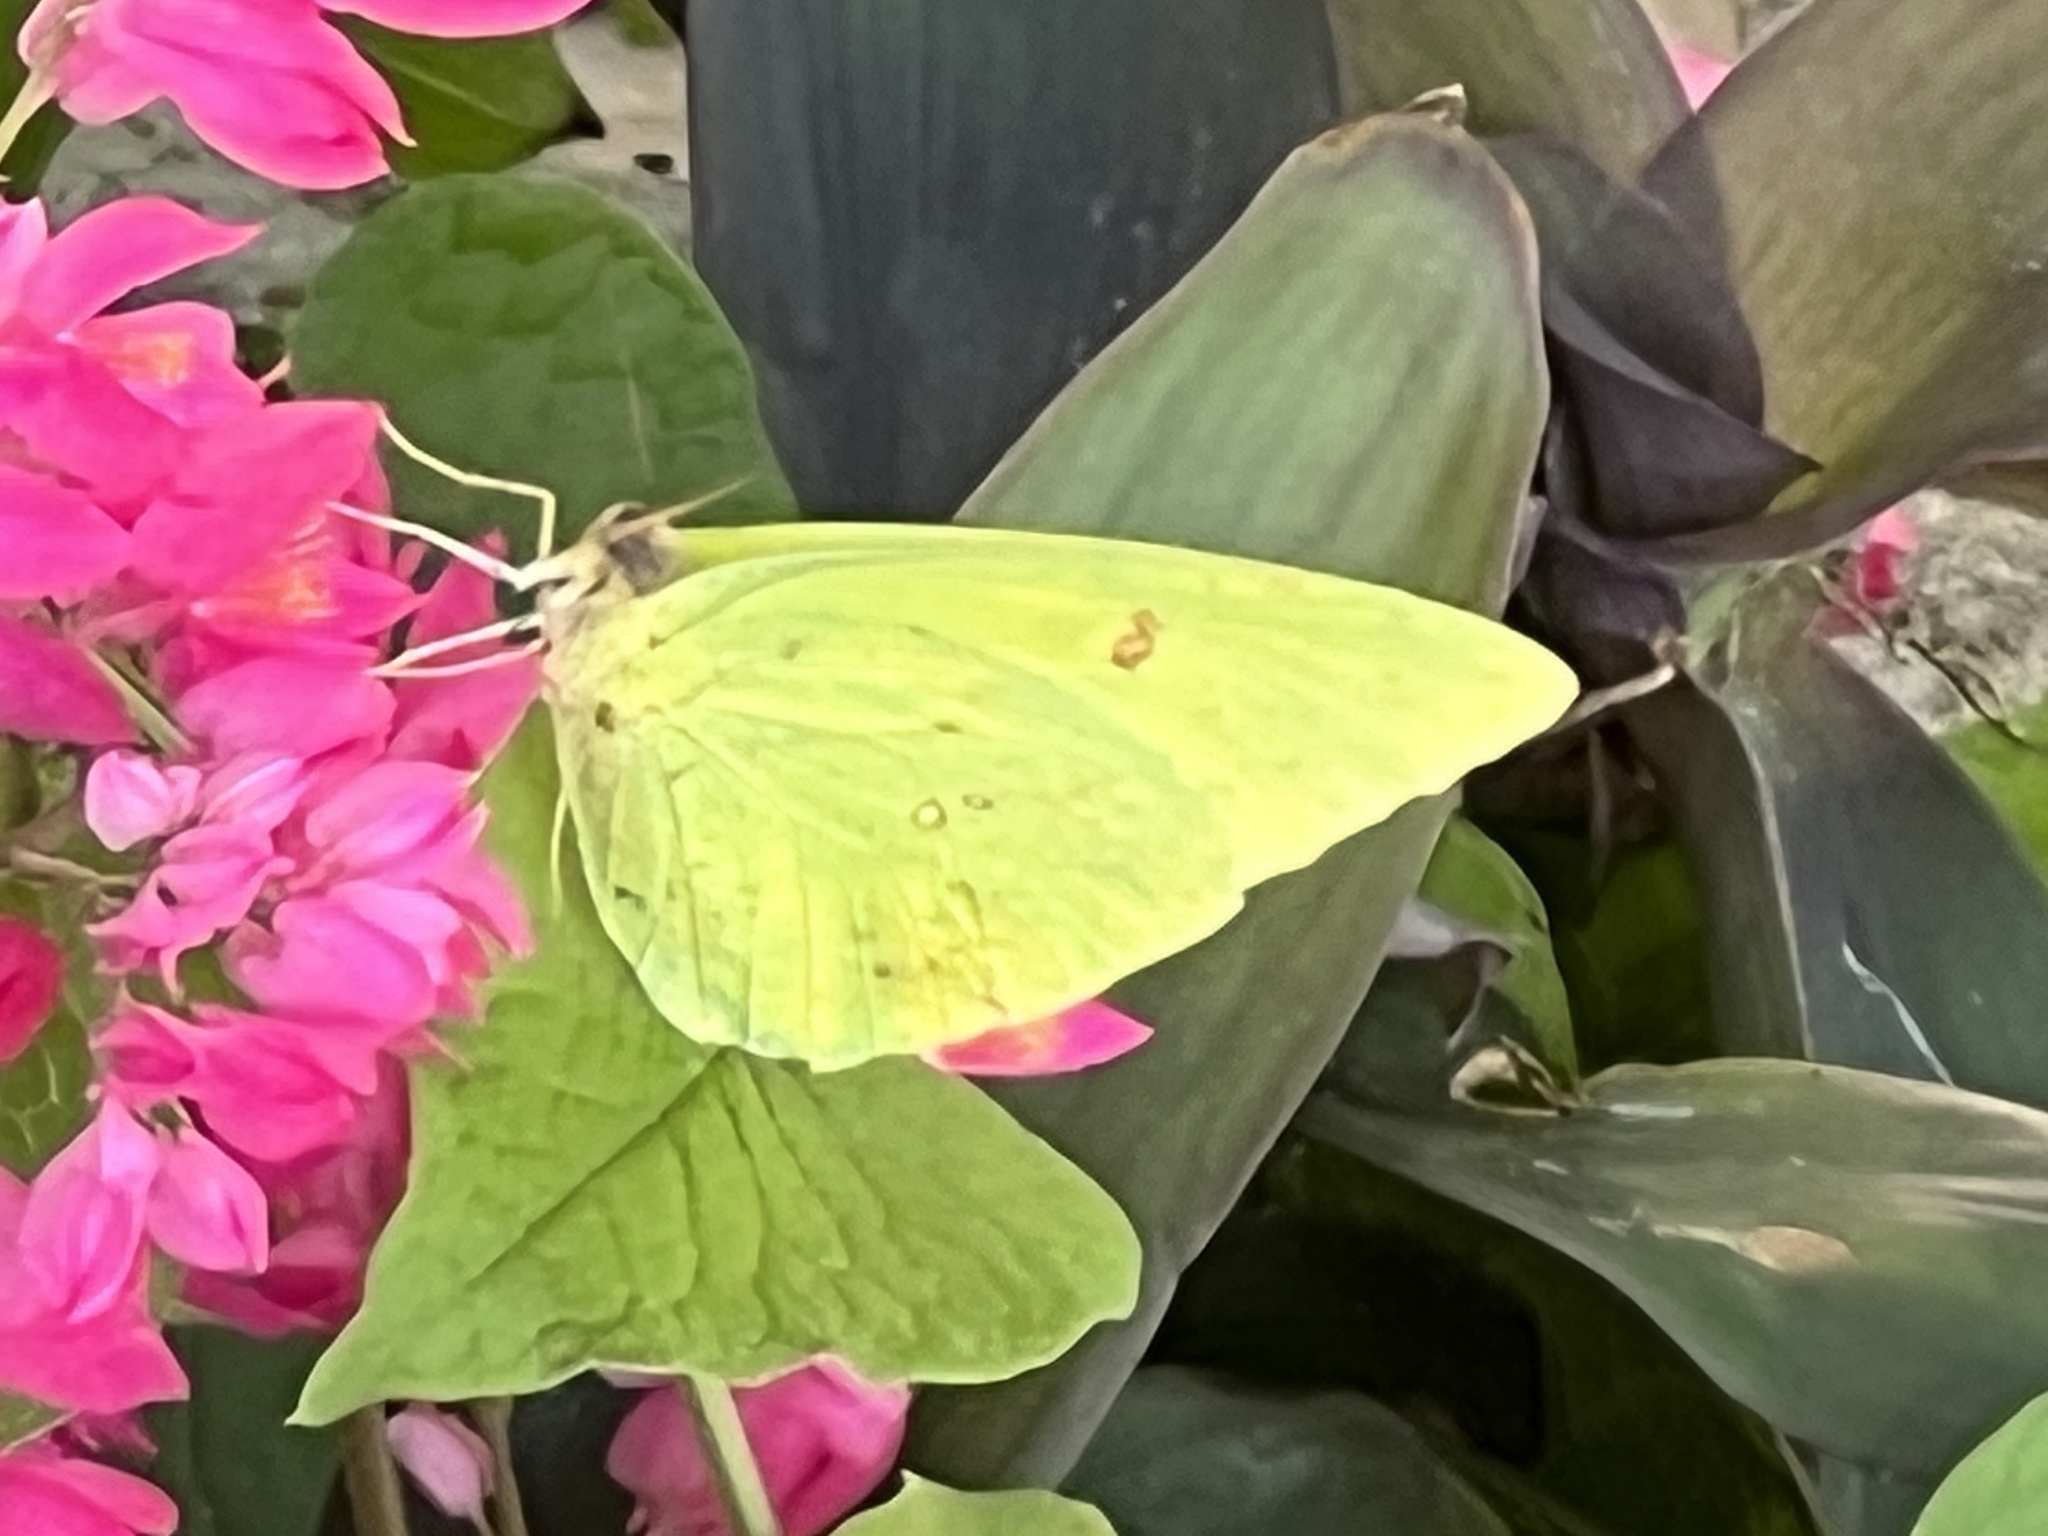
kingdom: Animalia
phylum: Arthropoda
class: Insecta
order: Lepidoptera
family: Pieridae
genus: Phoebis
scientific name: Phoebis sennae
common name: Cloudless sulphur
